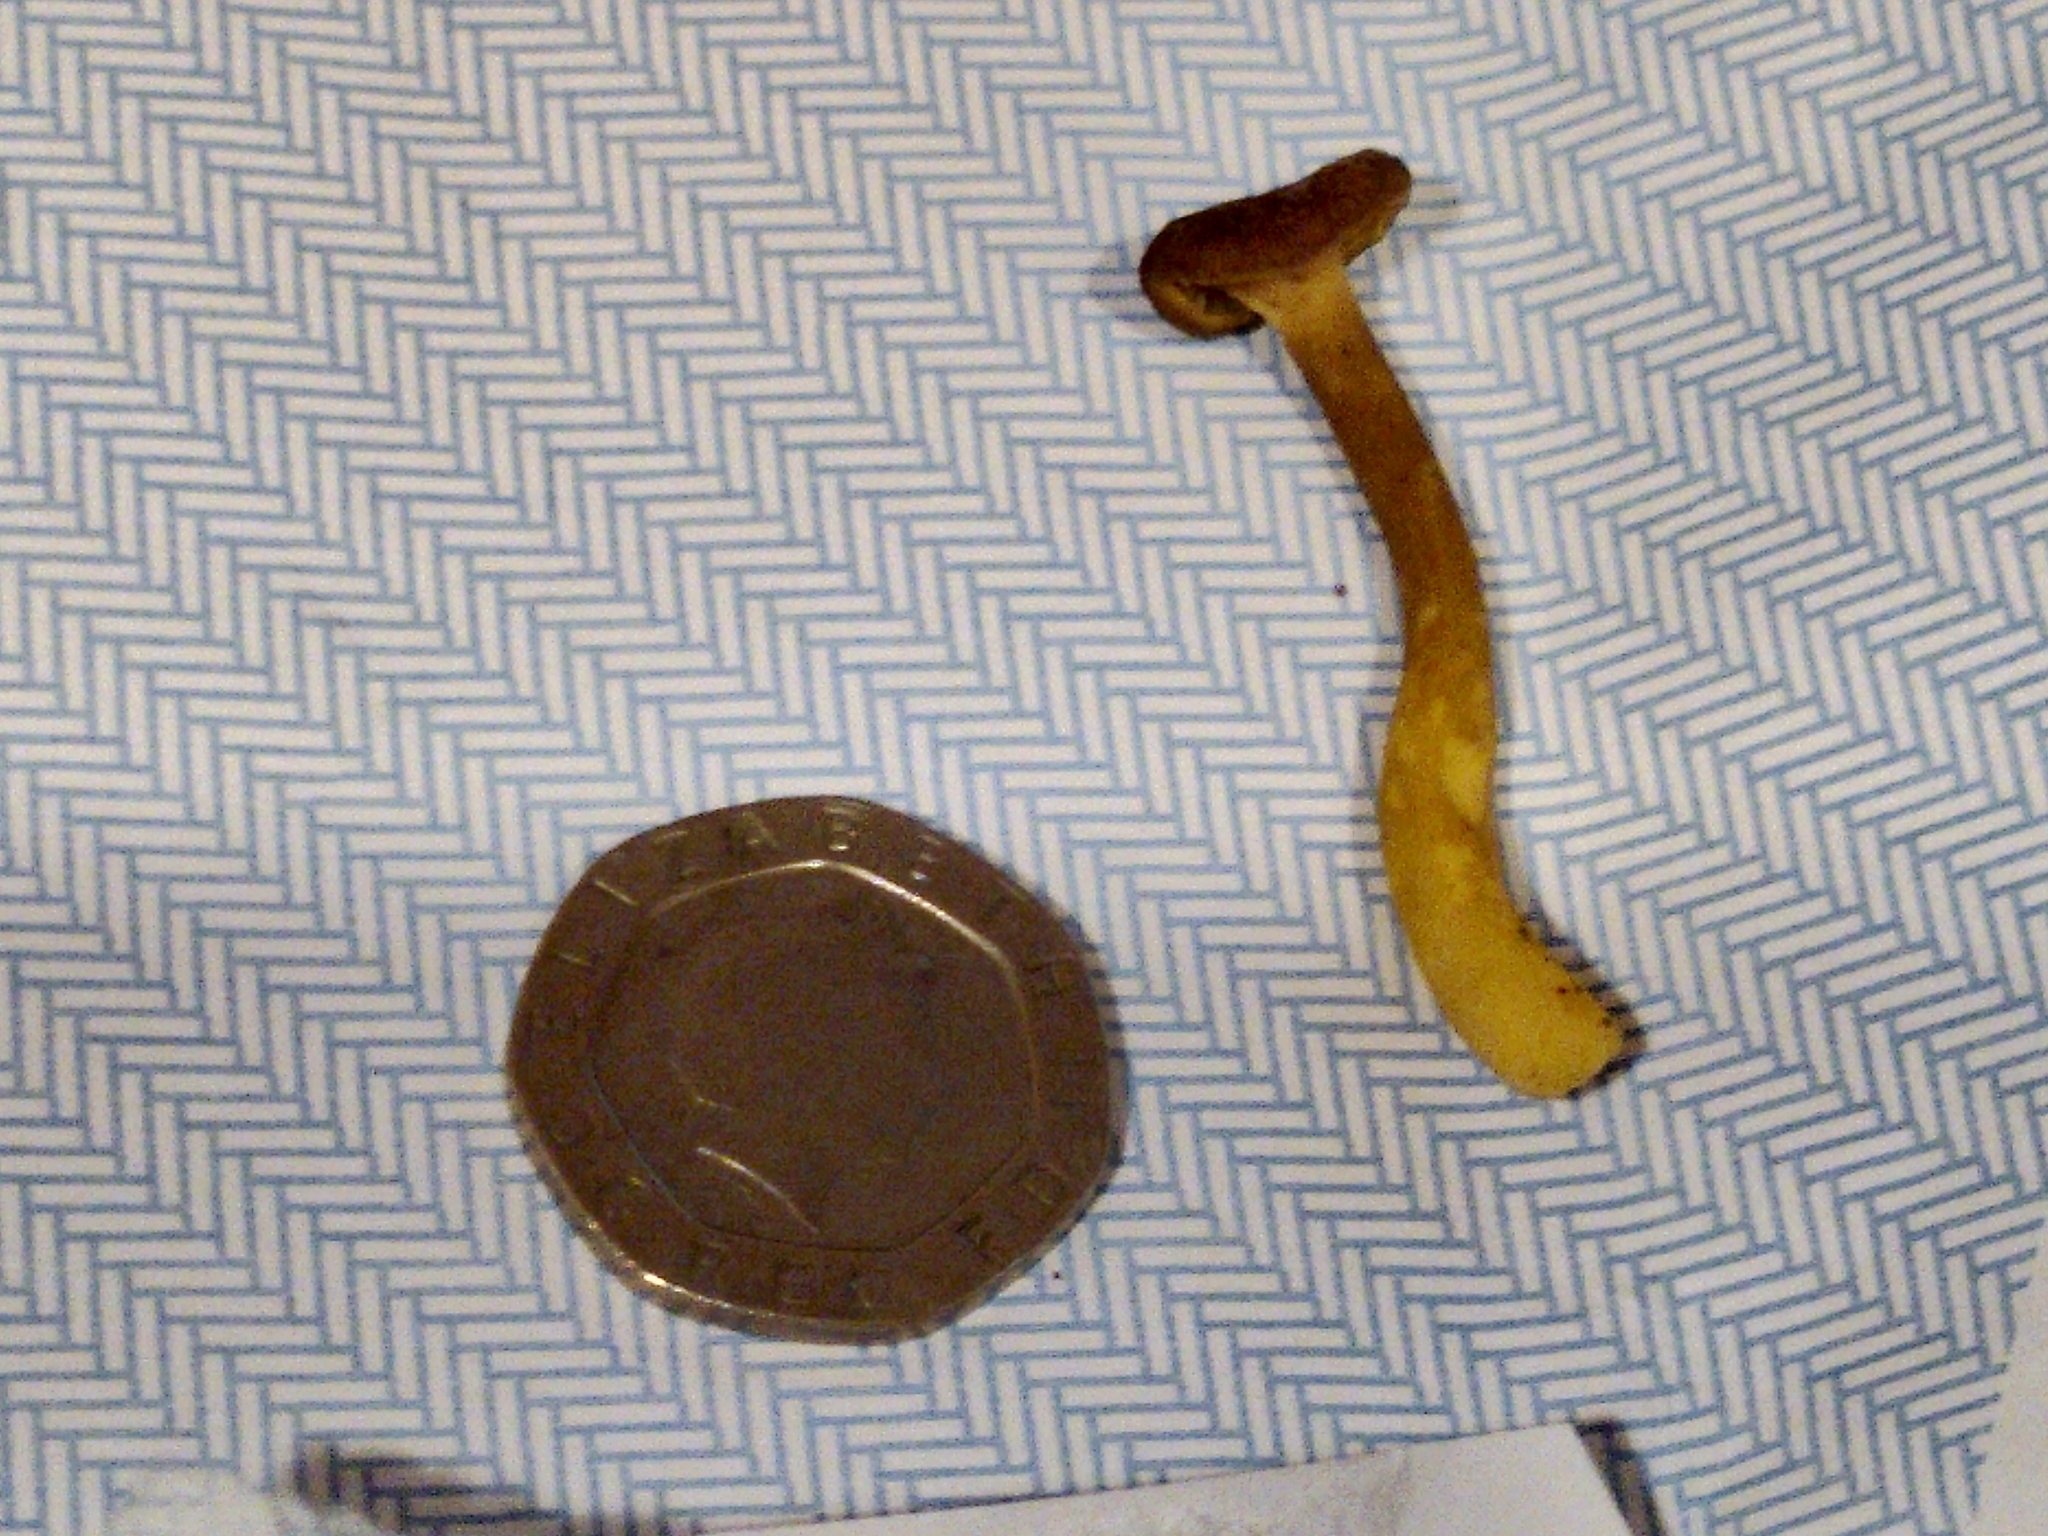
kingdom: Fungi
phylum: Basidiomycota
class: Agaricomycetes
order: Cantharellales
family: Hydnaceae
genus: Craterellus
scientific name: Craterellus tubaeformis
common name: Yellowfoot
